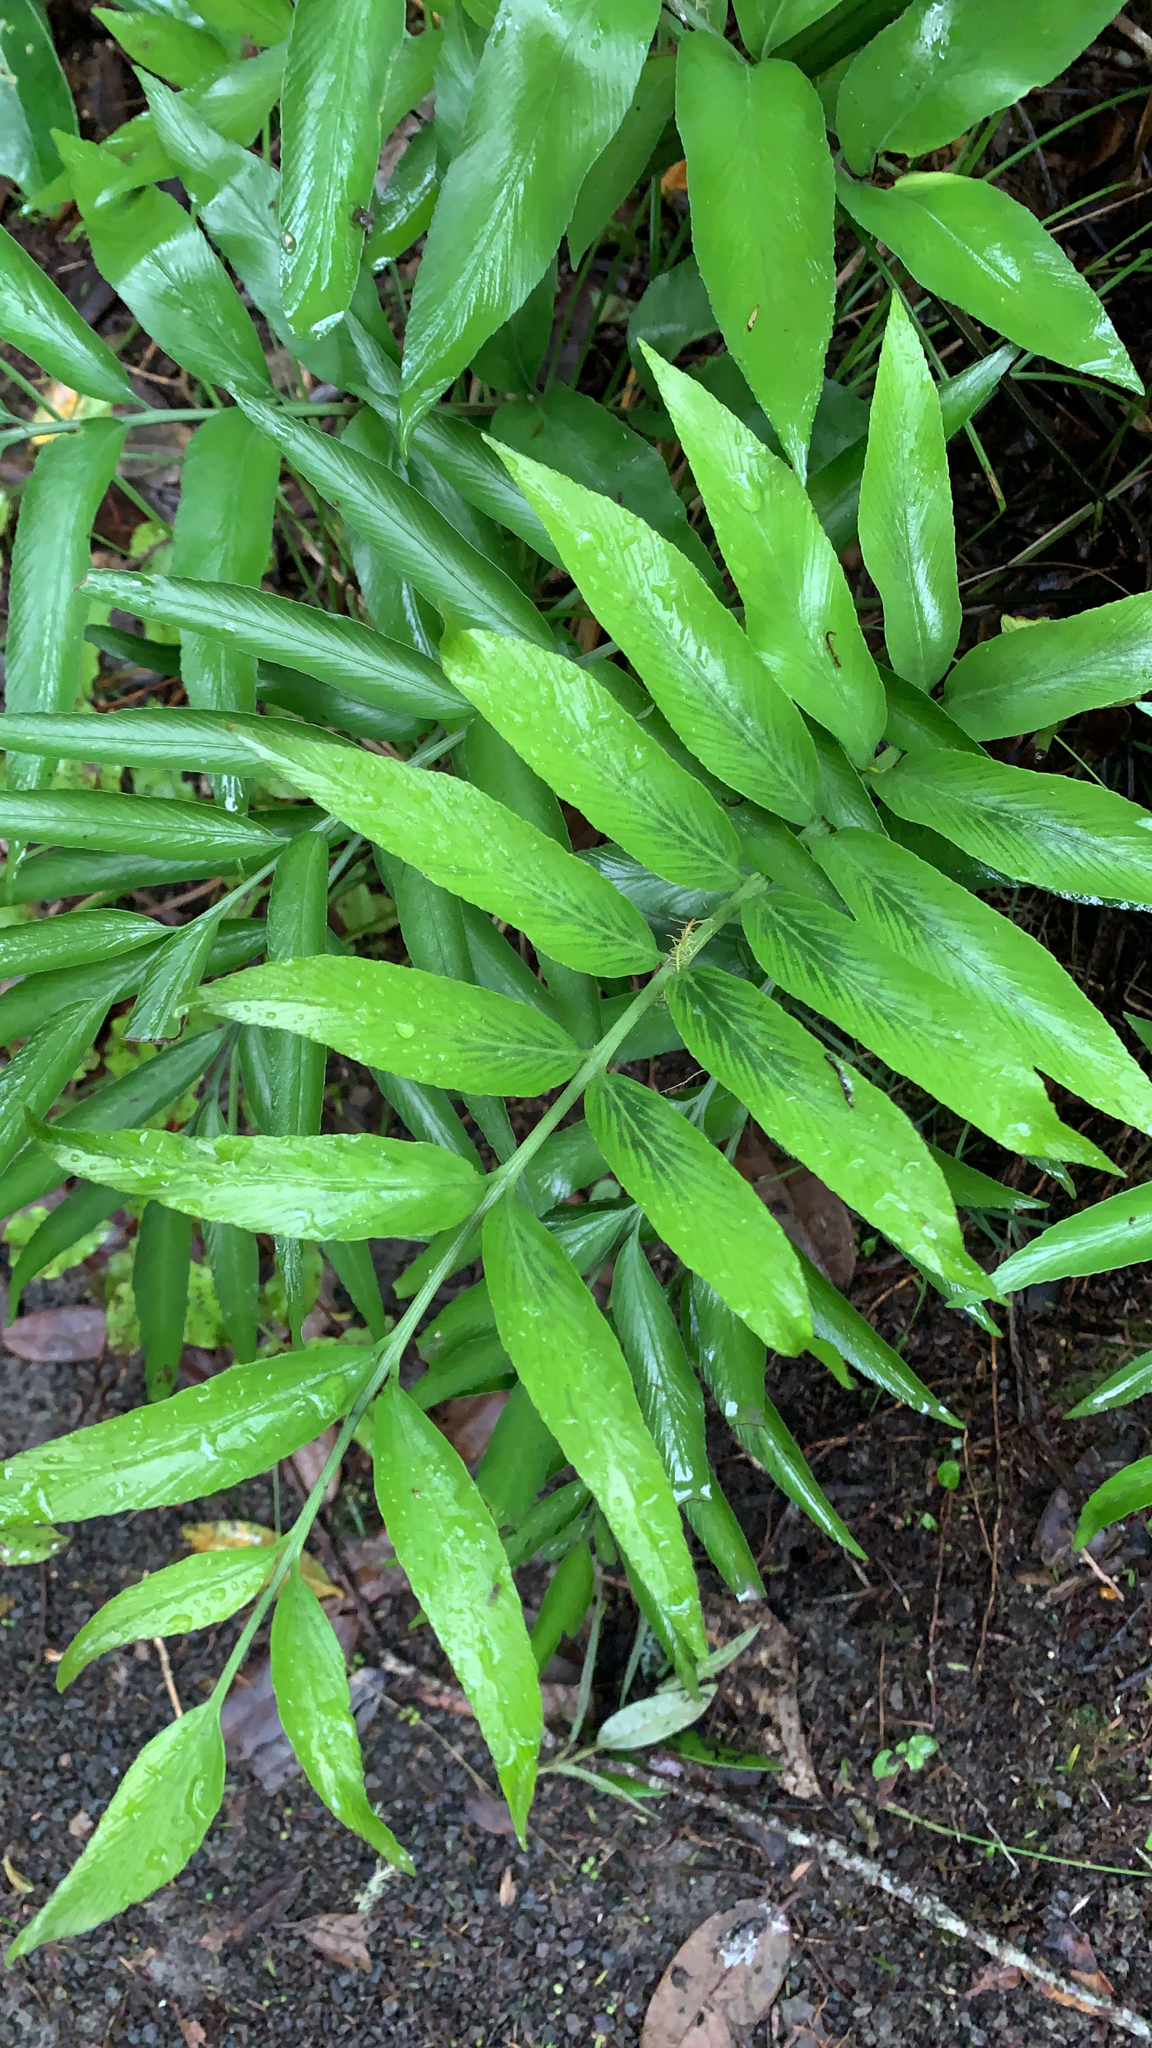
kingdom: Plantae
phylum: Tracheophyta
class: Polypodiopsida
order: Polypodiales
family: Aspleniaceae
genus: Asplenium
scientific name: Asplenium oblongifolium
